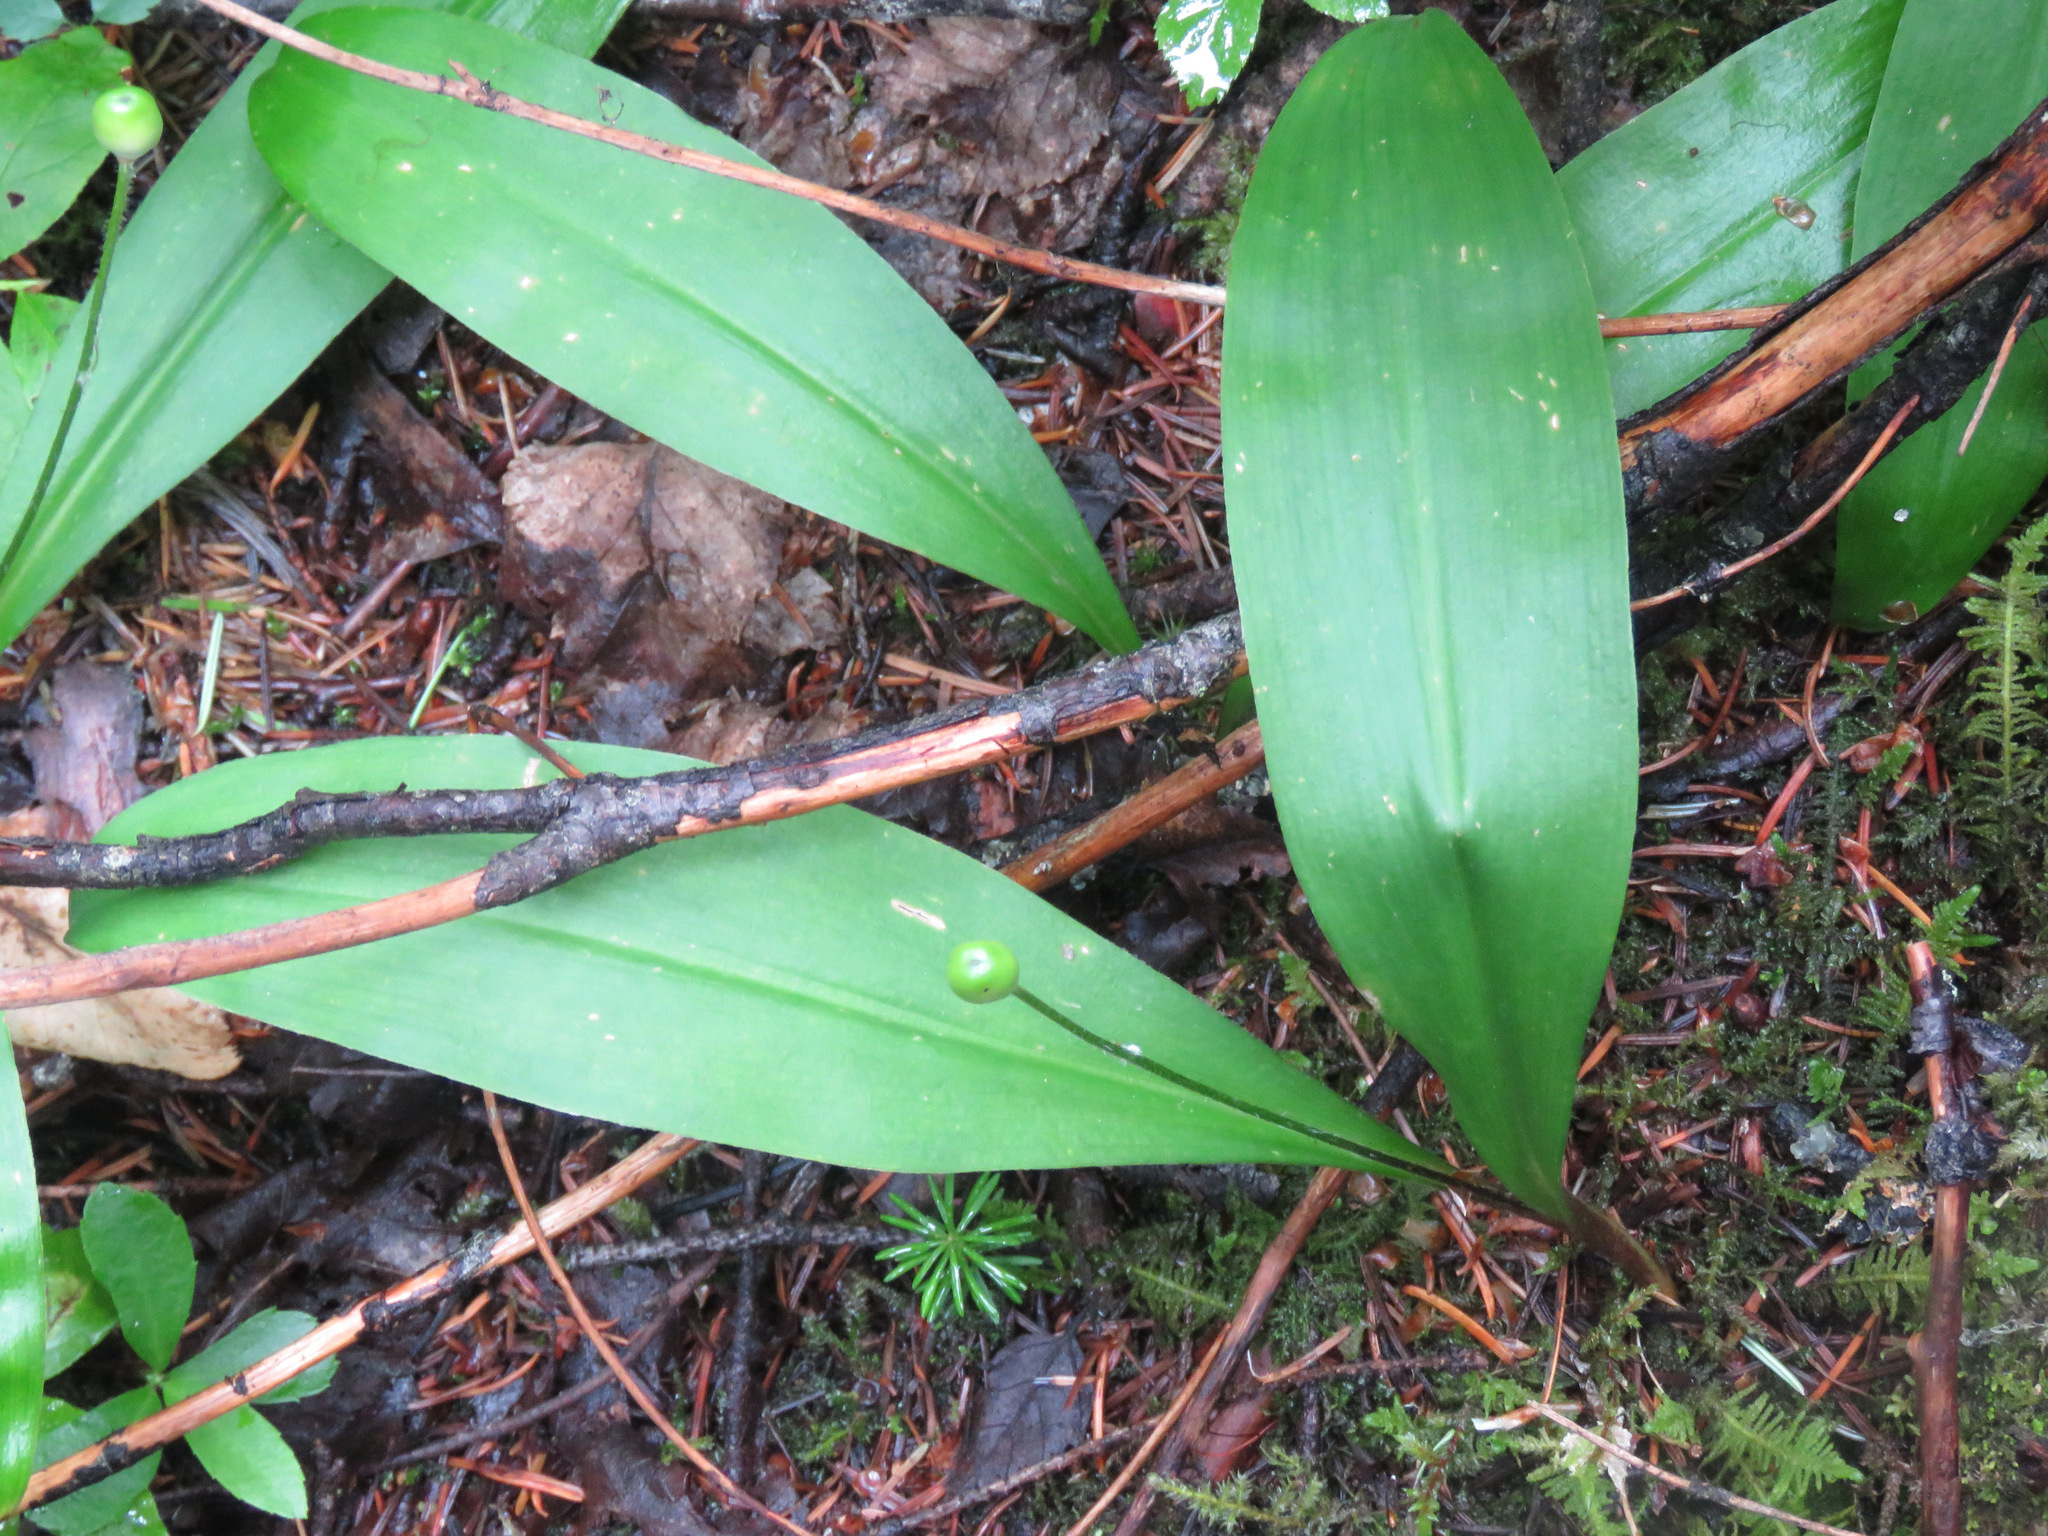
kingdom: Plantae
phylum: Tracheophyta
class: Liliopsida
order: Liliales
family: Liliaceae
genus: Clintonia
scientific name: Clintonia uniflora
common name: Queen's cup
